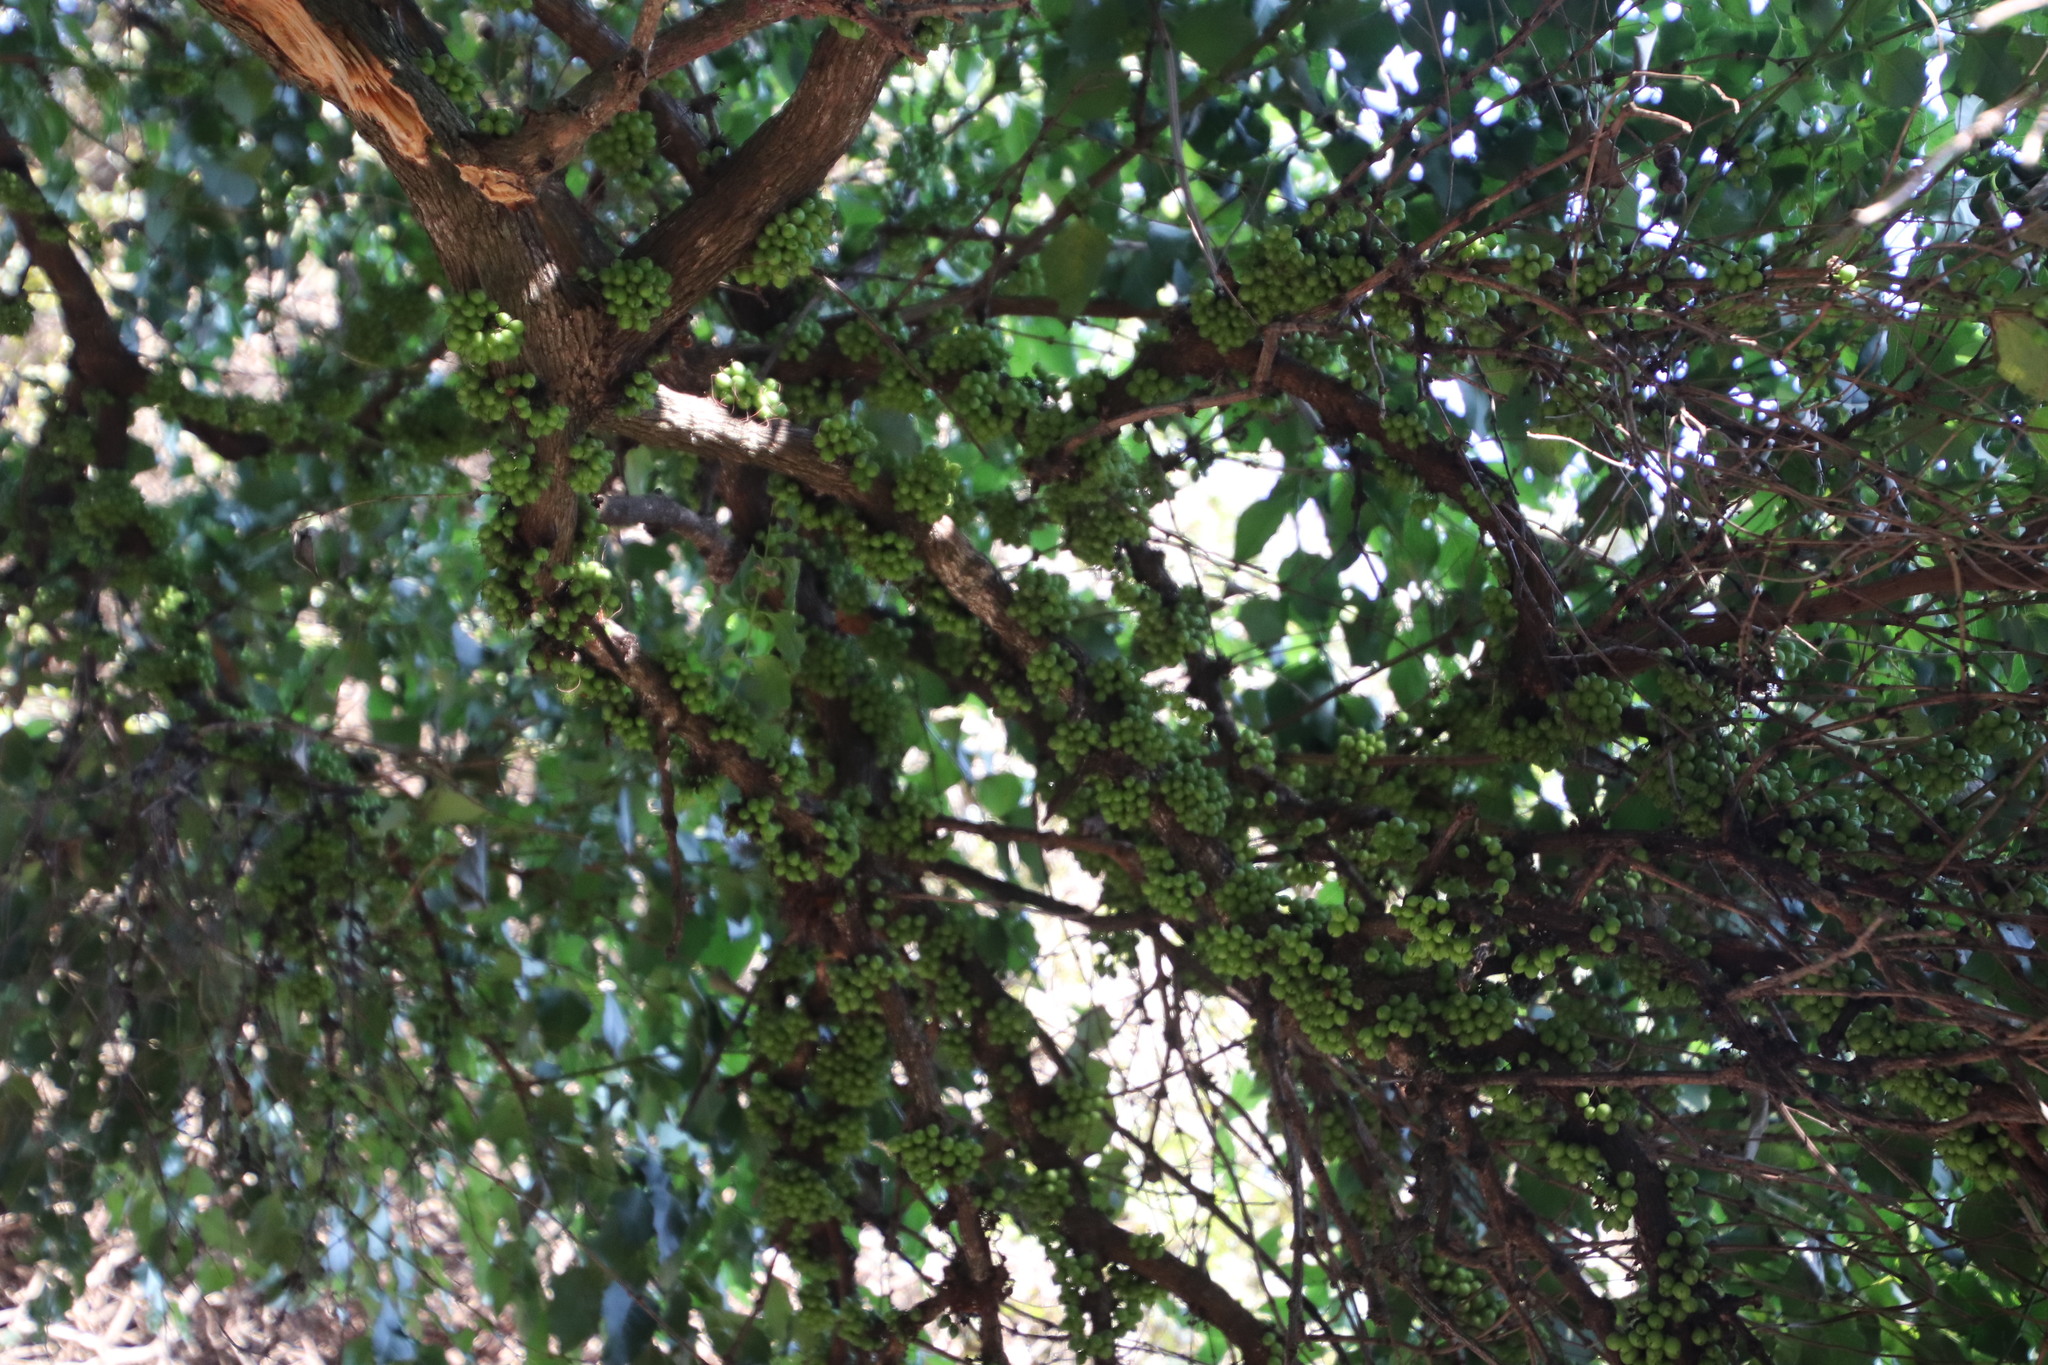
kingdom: Plantae
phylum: Tracheophyta
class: Magnoliopsida
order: Lamiales
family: Stilbaceae
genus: Halleria
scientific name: Halleria lucida
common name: Tree fuschia
